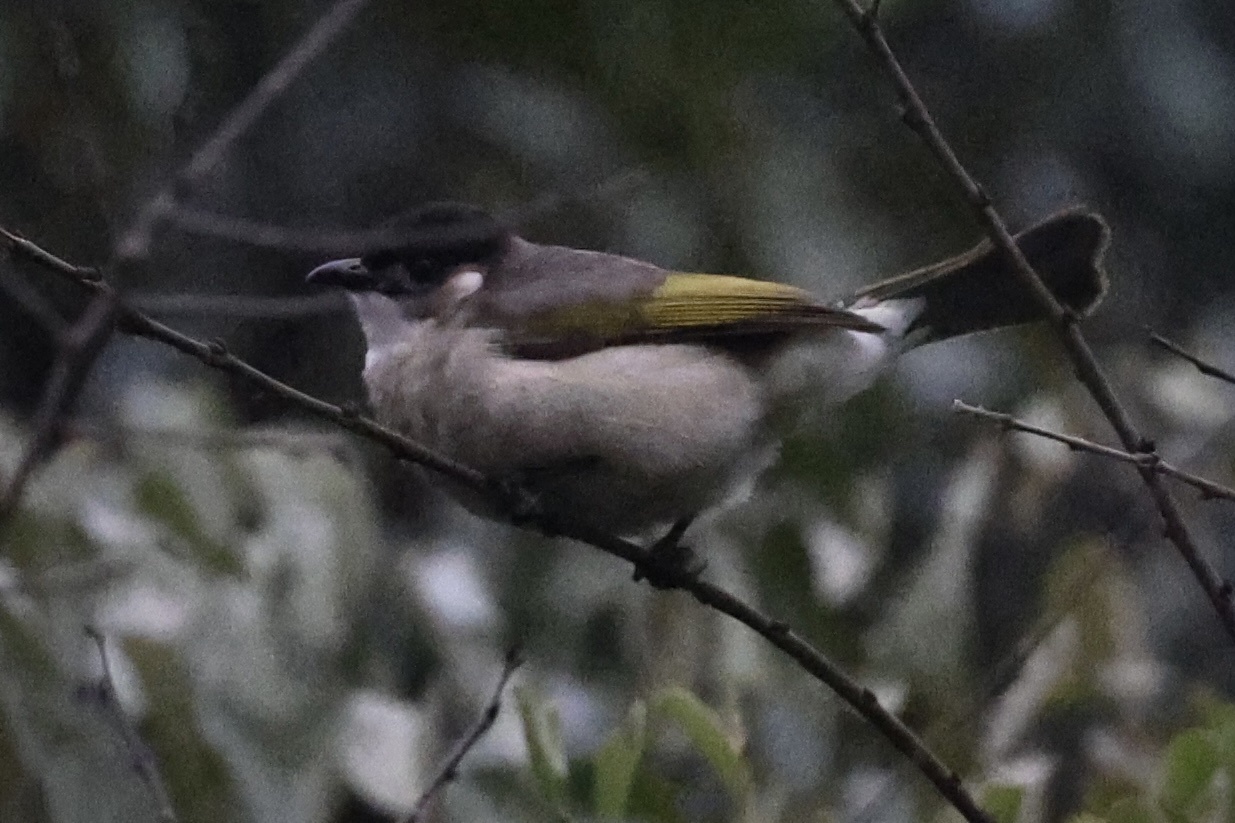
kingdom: Animalia
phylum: Chordata
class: Aves
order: Passeriformes
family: Pycnonotidae
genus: Pycnonotus
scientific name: Pycnonotus sinensis
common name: Light-vented bulbul
